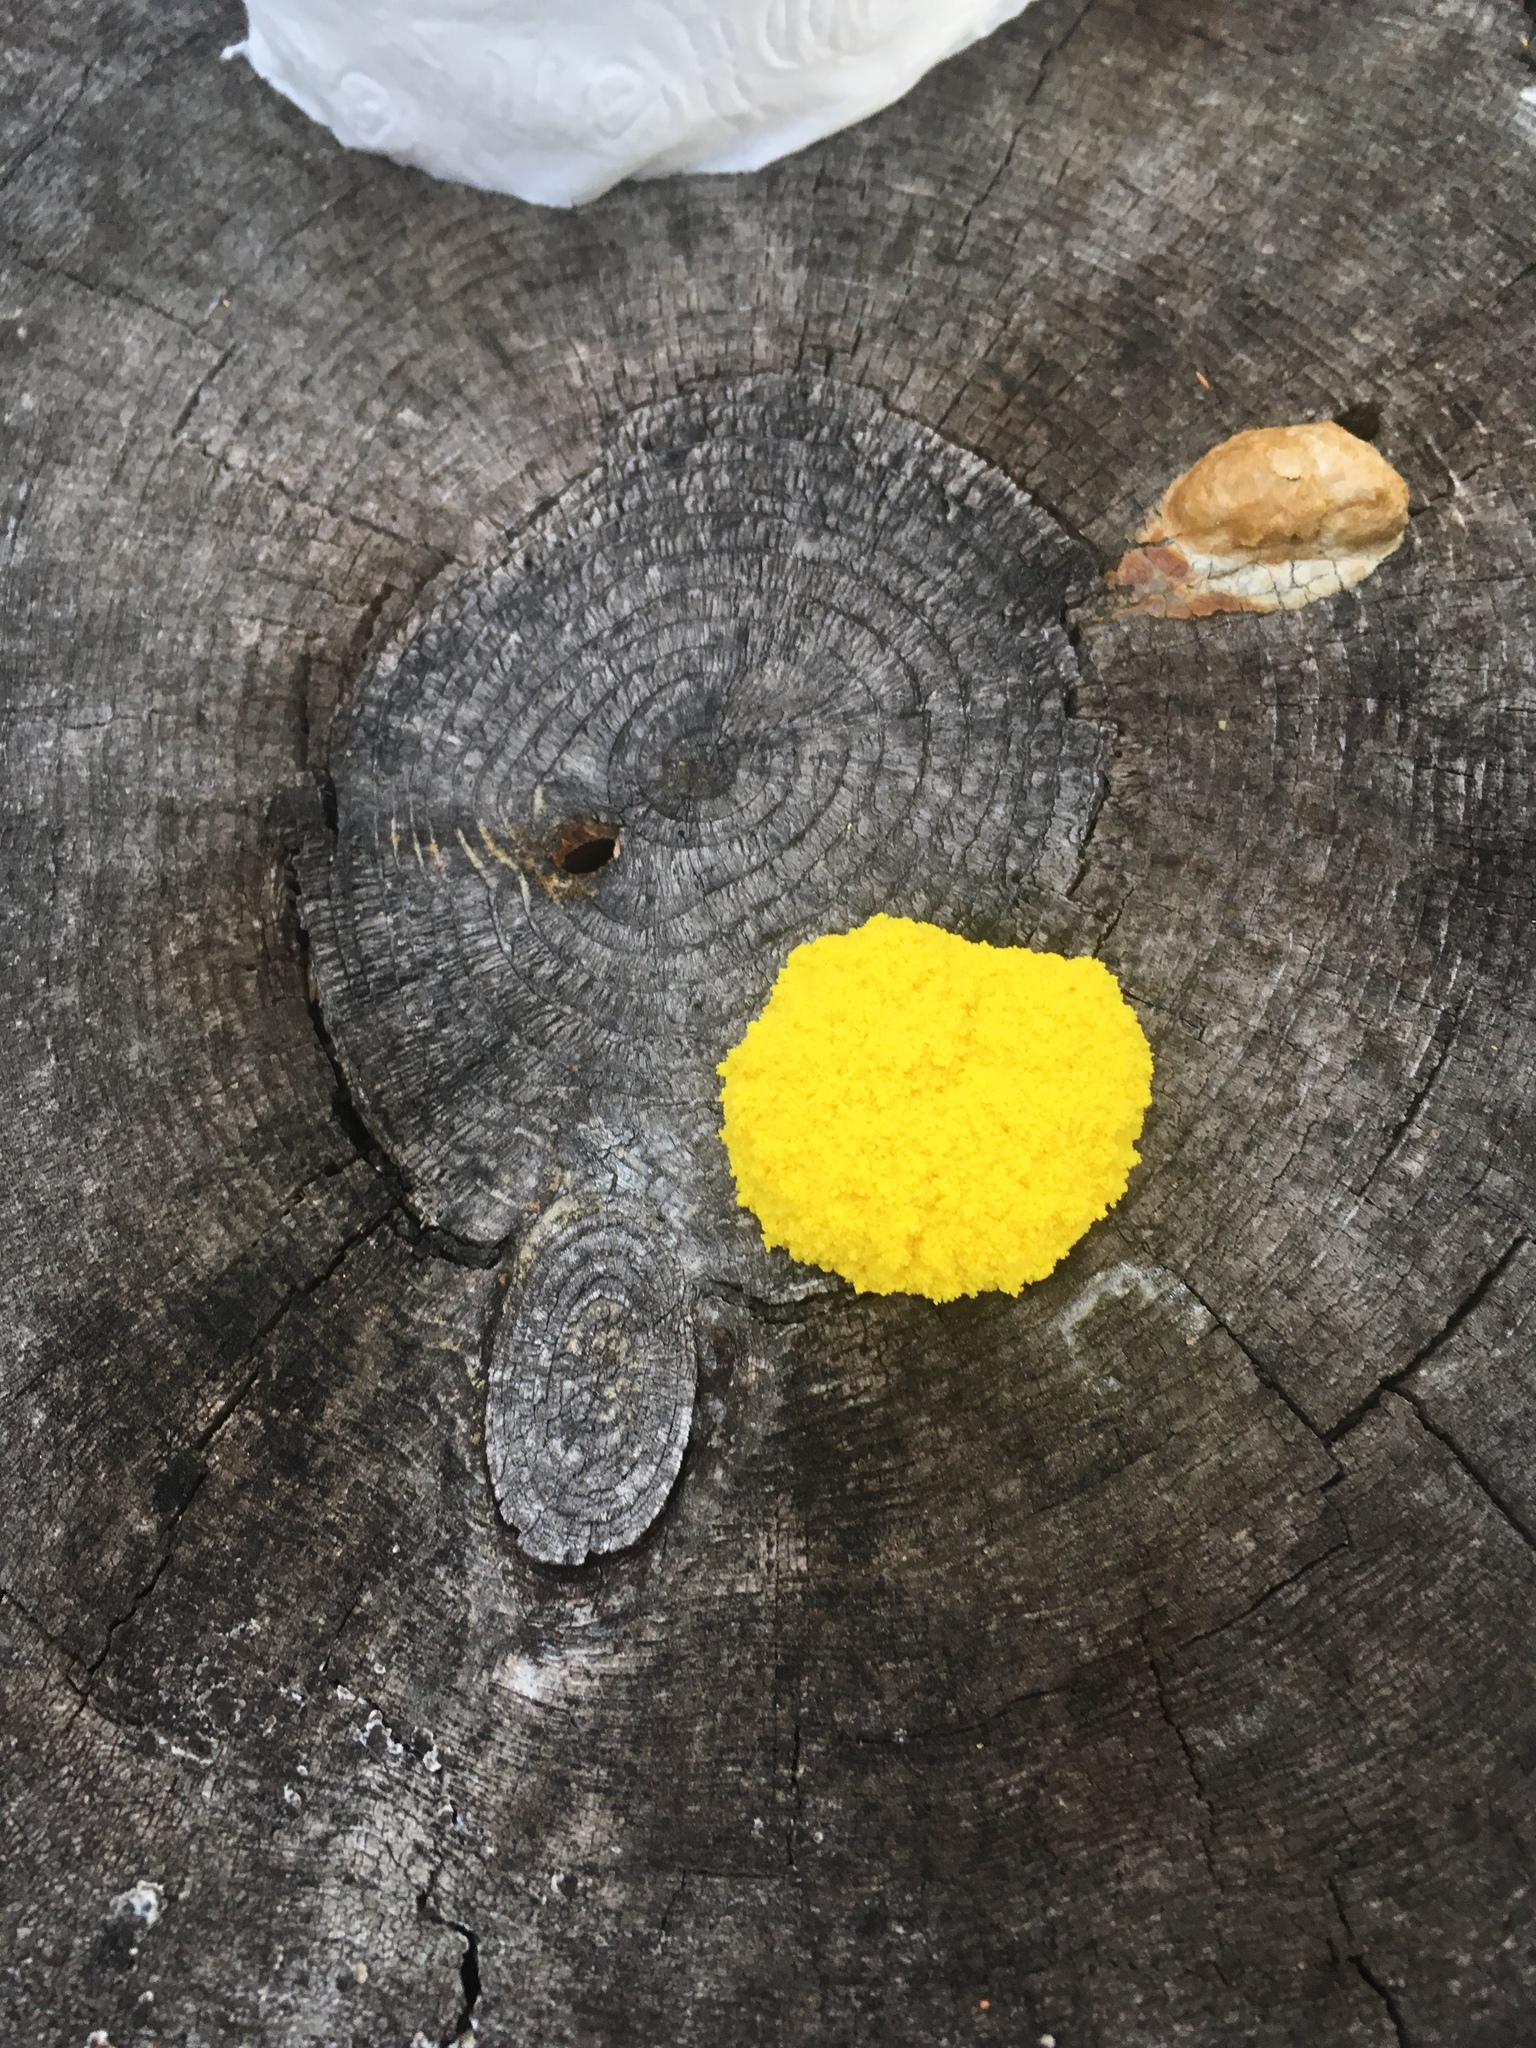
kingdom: Protozoa
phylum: Mycetozoa
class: Myxomycetes
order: Physarales
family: Physaraceae
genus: Fuligo
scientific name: Fuligo septica
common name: Dog vomit slime mold
